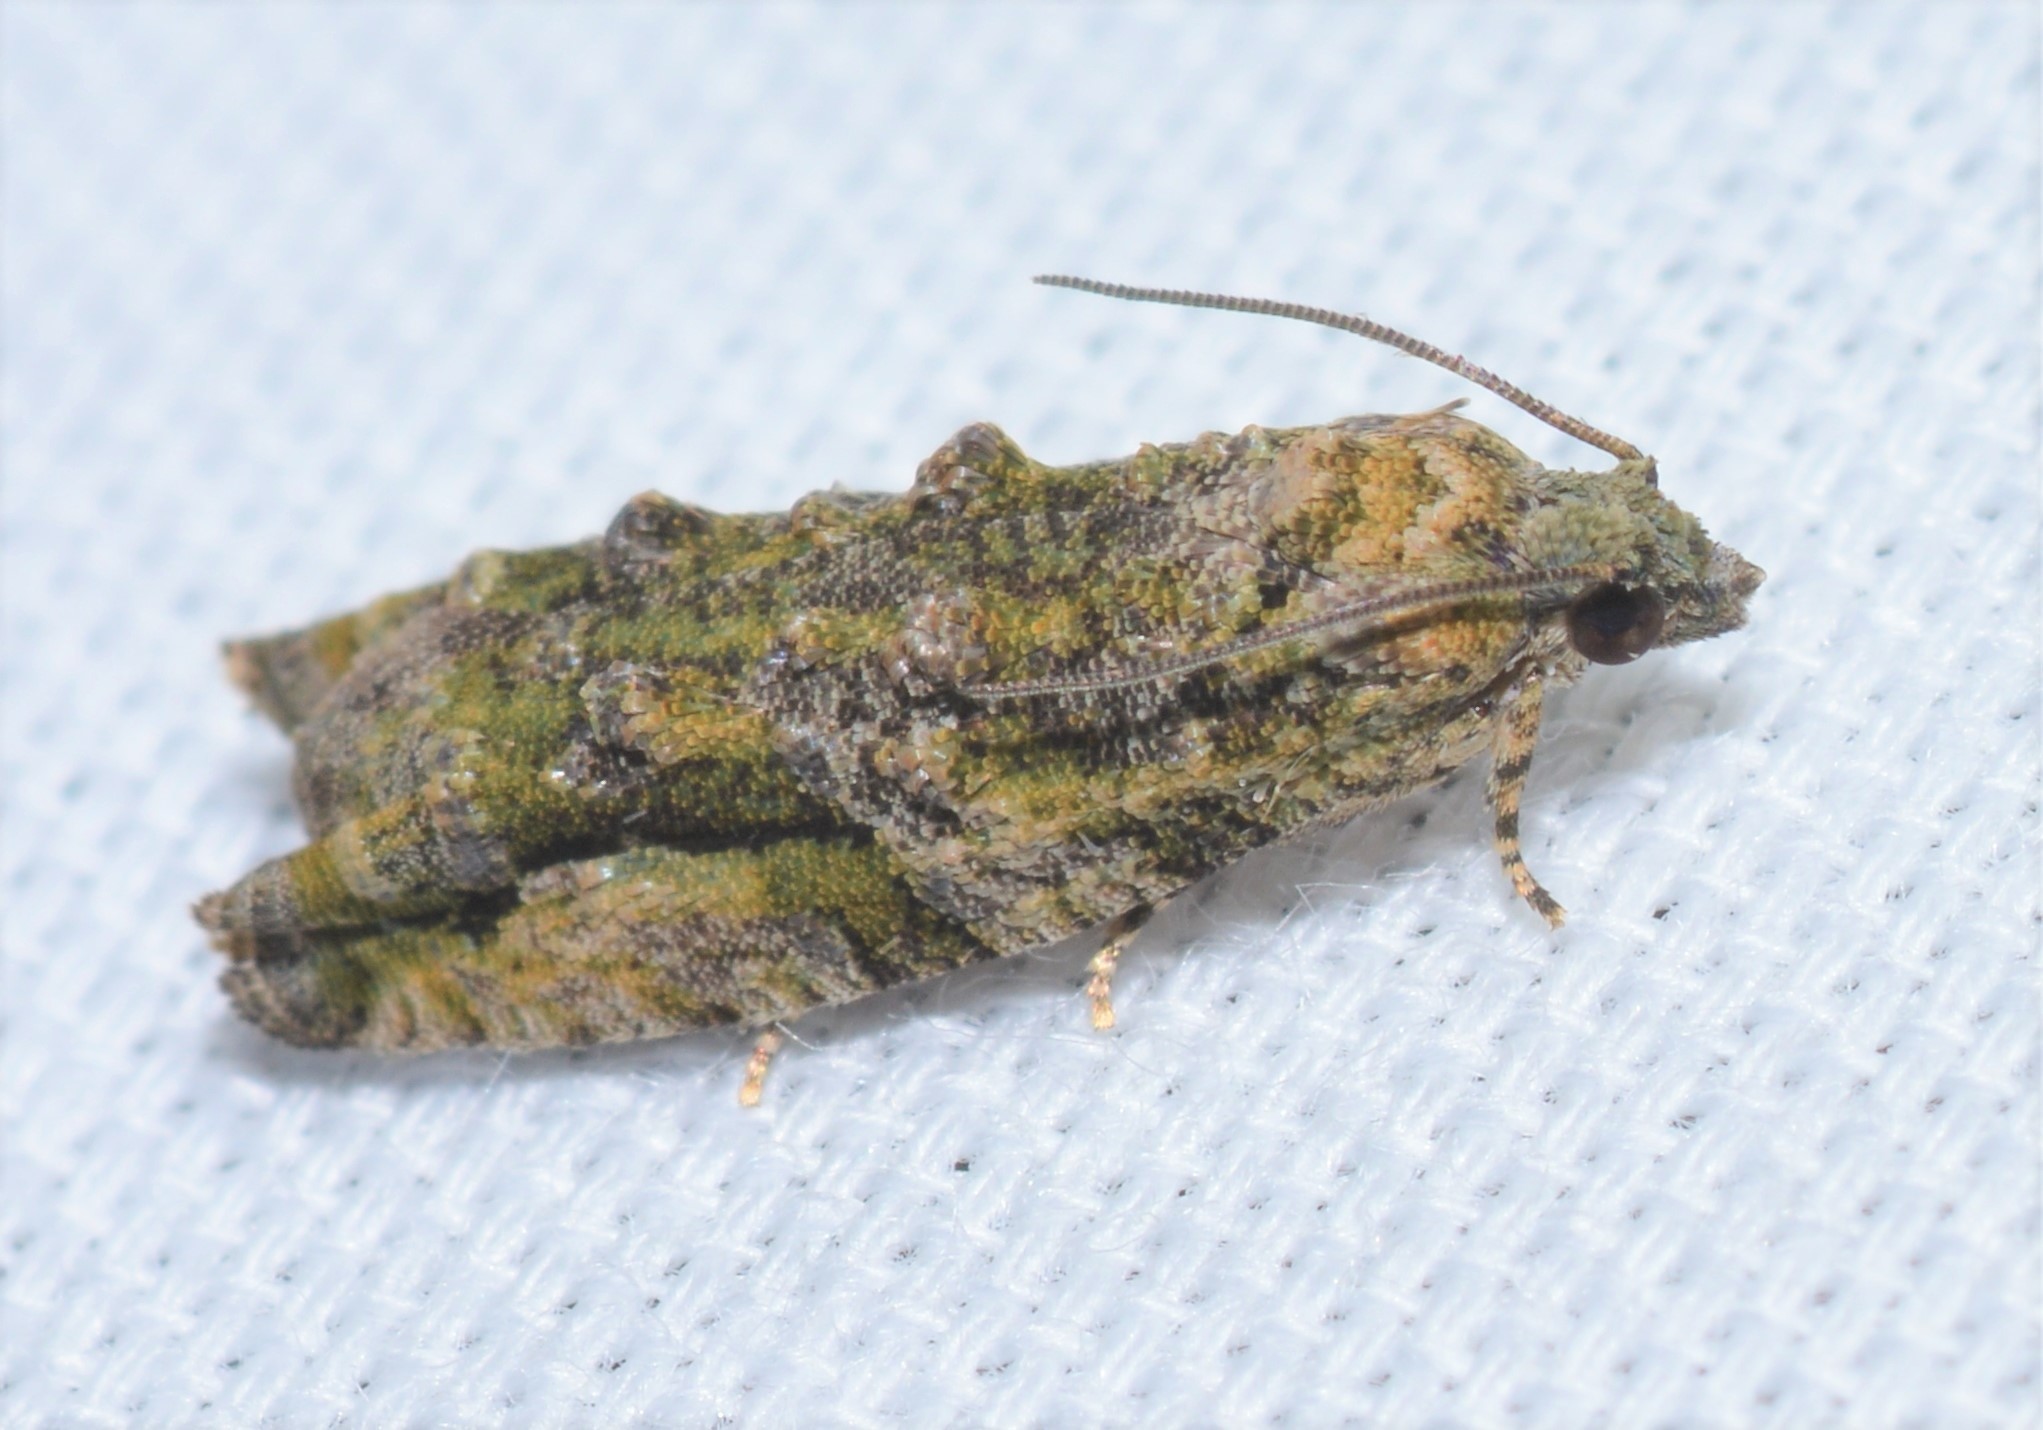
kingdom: Animalia
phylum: Arthropoda
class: Insecta
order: Lepidoptera
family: Tortricidae
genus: Proteoteras
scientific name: Proteoteras aesculana
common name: Maple twig borer moth
